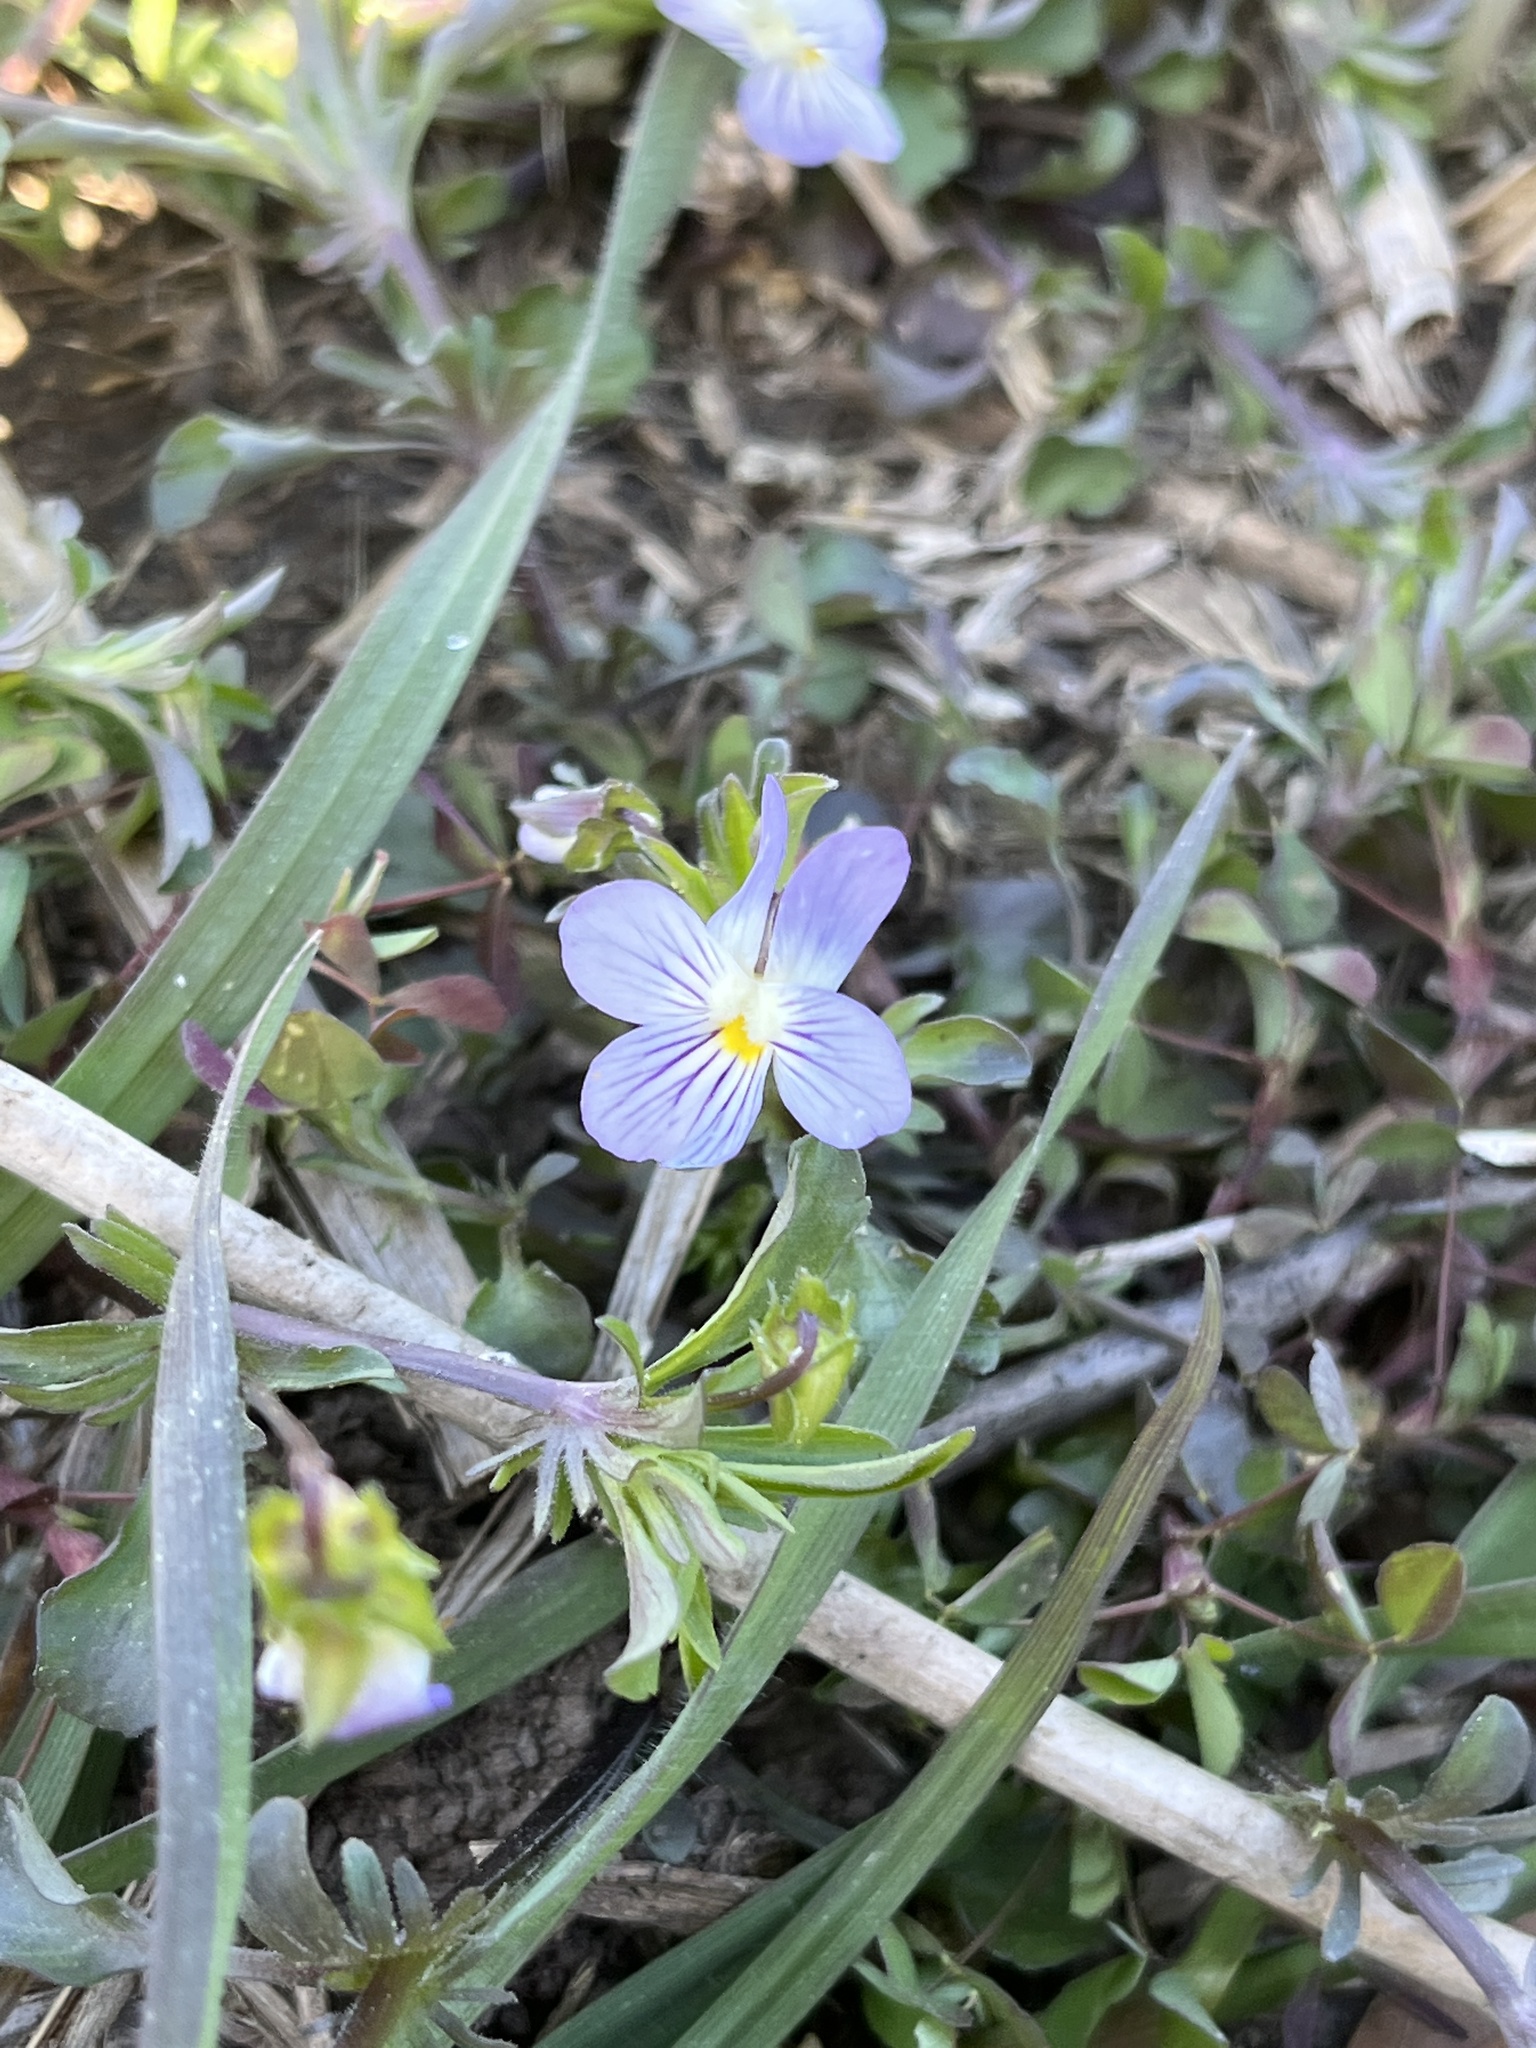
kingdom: Plantae
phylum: Tracheophyta
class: Magnoliopsida
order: Malpighiales
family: Violaceae
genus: Viola
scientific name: Viola rafinesquei
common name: American field pansy
